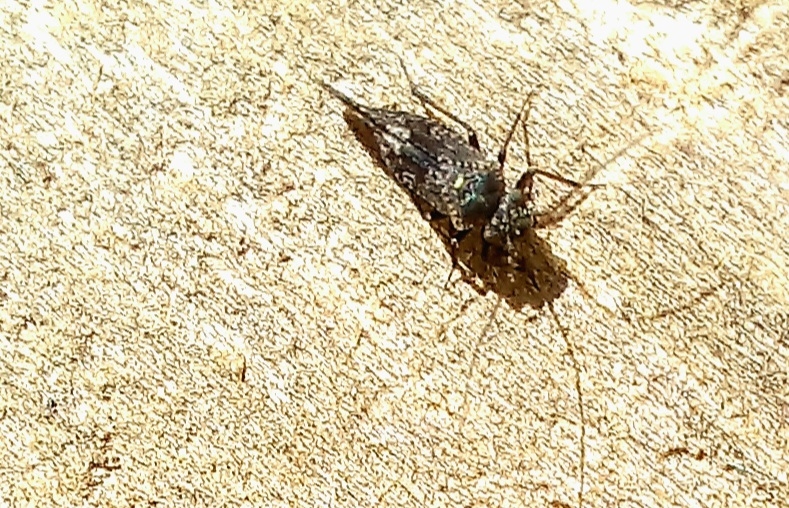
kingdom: Animalia
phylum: Arthropoda
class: Insecta
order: Psocodea
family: Myopsocidae
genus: Nimbopsocus
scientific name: Nimbopsocus australis
